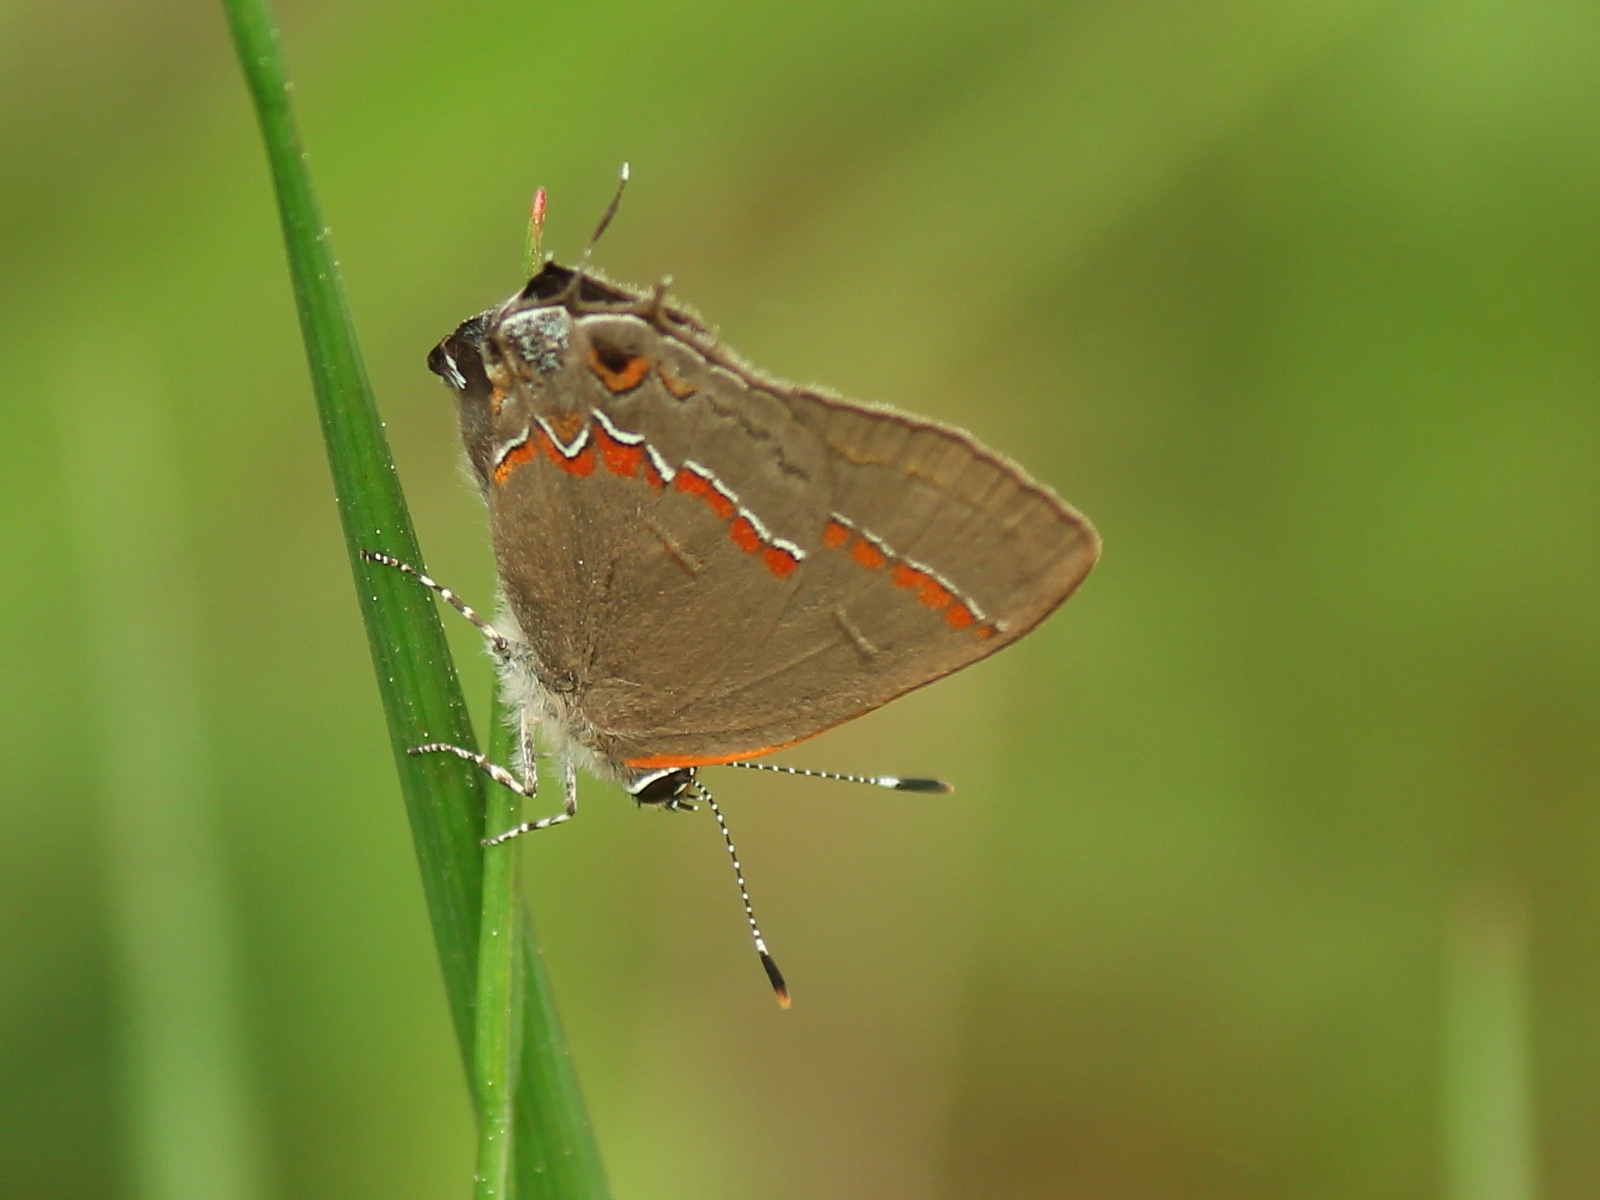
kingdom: Animalia
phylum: Arthropoda
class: Insecta
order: Lepidoptera
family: Lycaenidae
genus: Calycopis
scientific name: Calycopis cecrops
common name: Red-banded hairstreak
